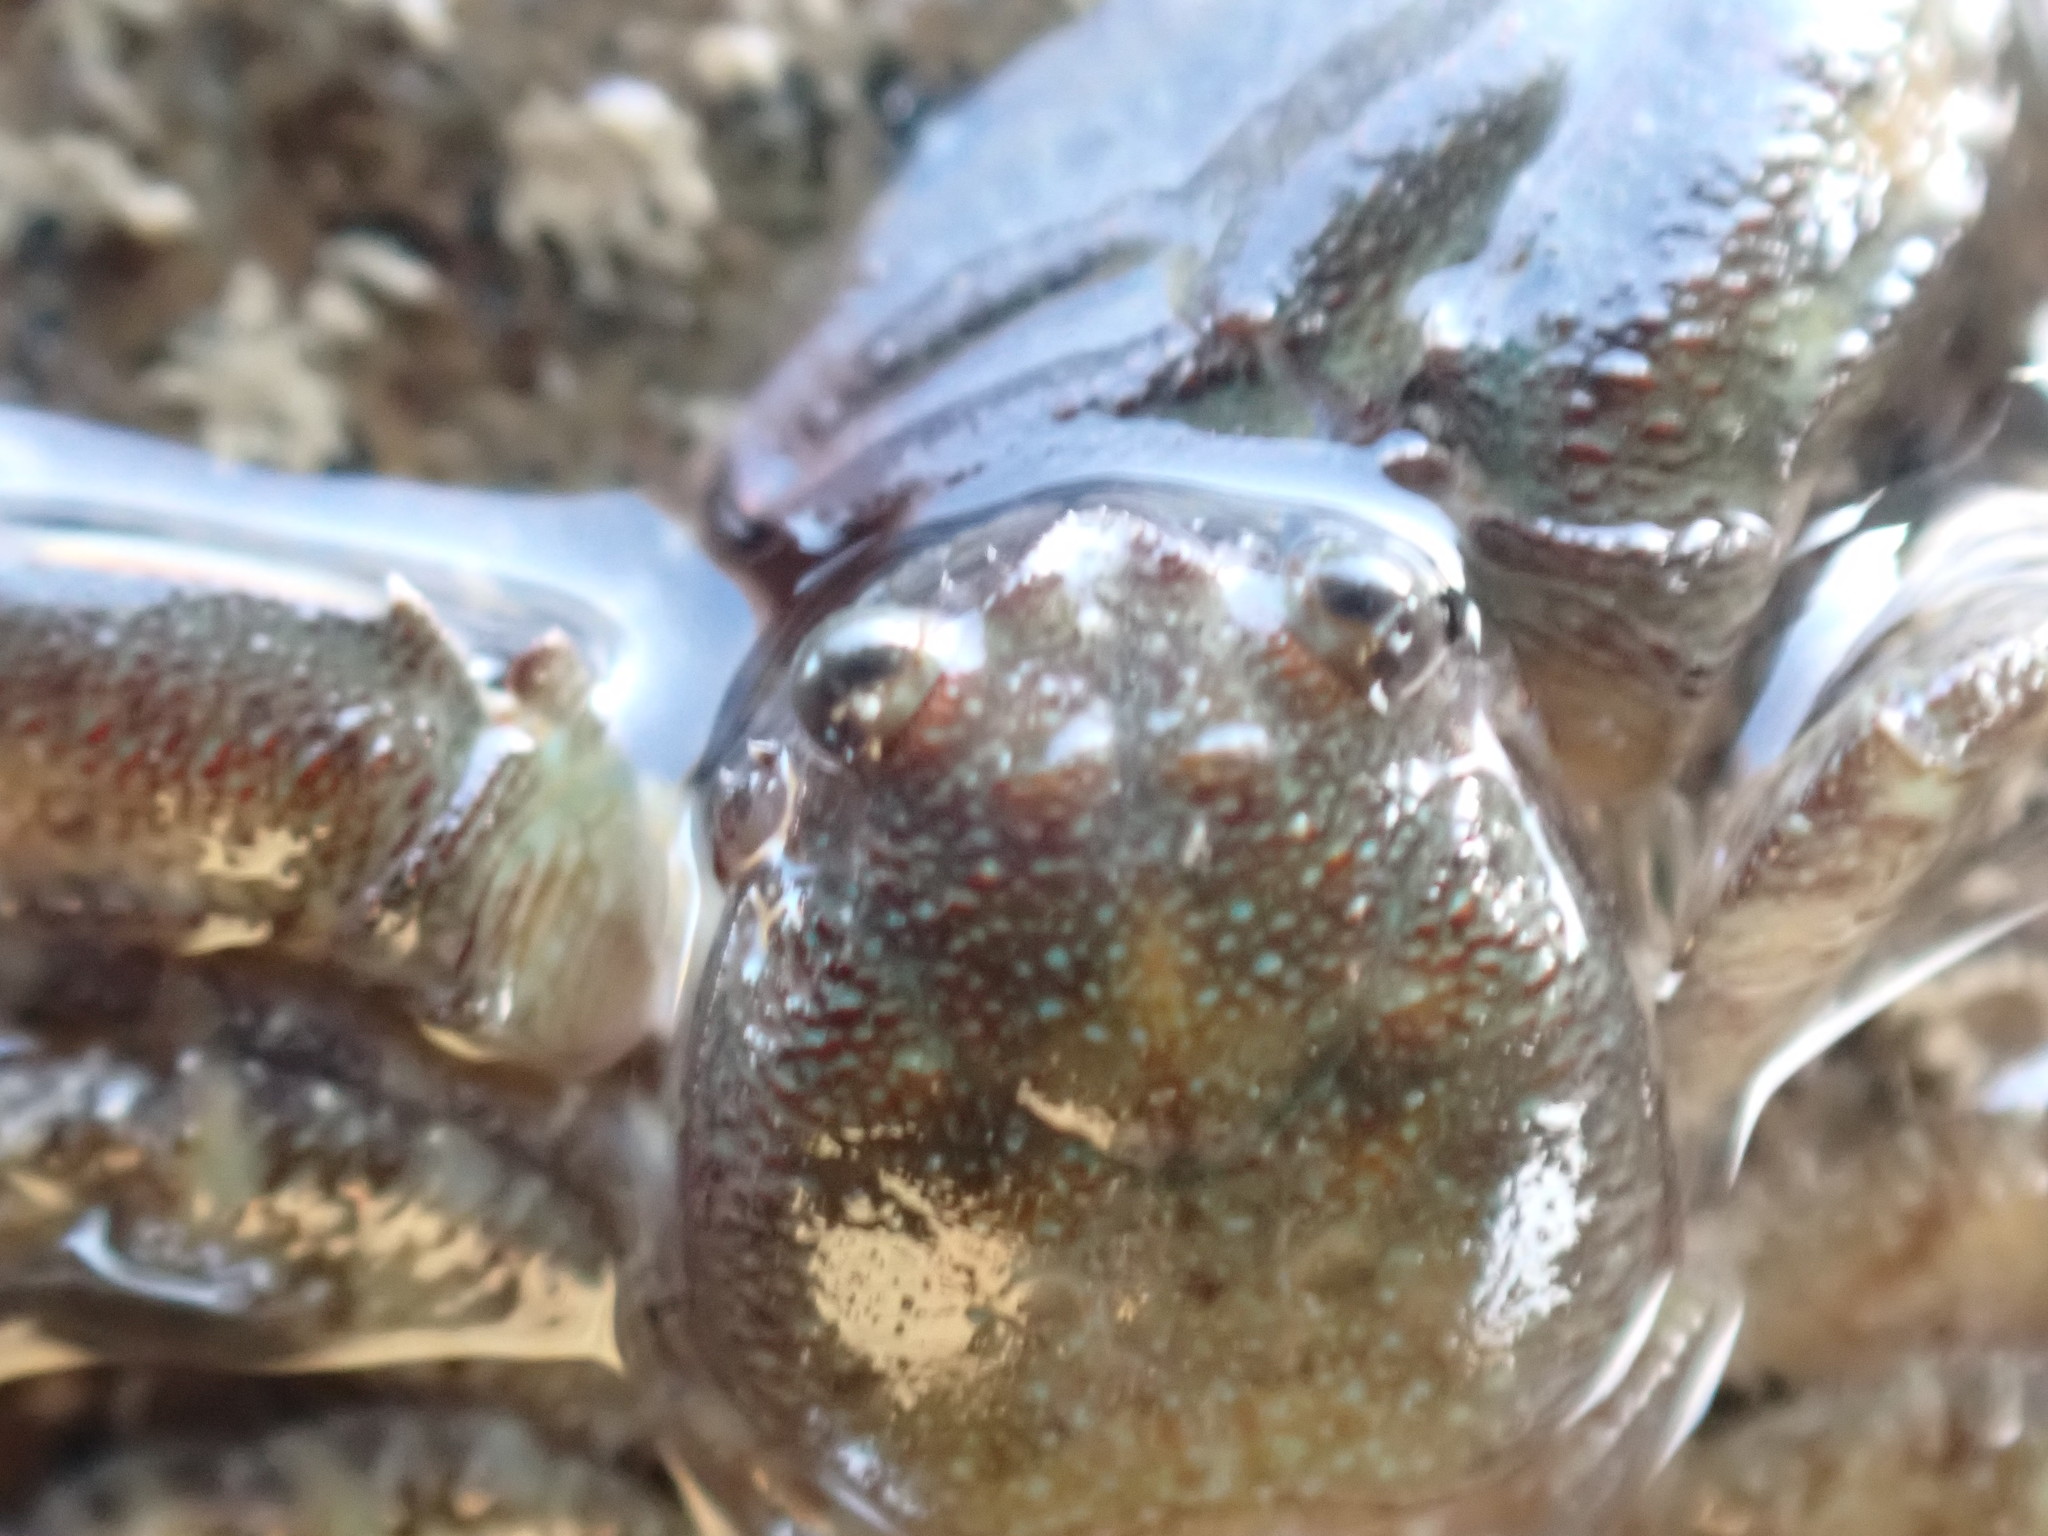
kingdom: Animalia
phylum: Arthropoda
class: Malacostraca
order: Decapoda
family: Porcellanidae
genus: Petrolisthes
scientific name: Petrolisthes elongatus
